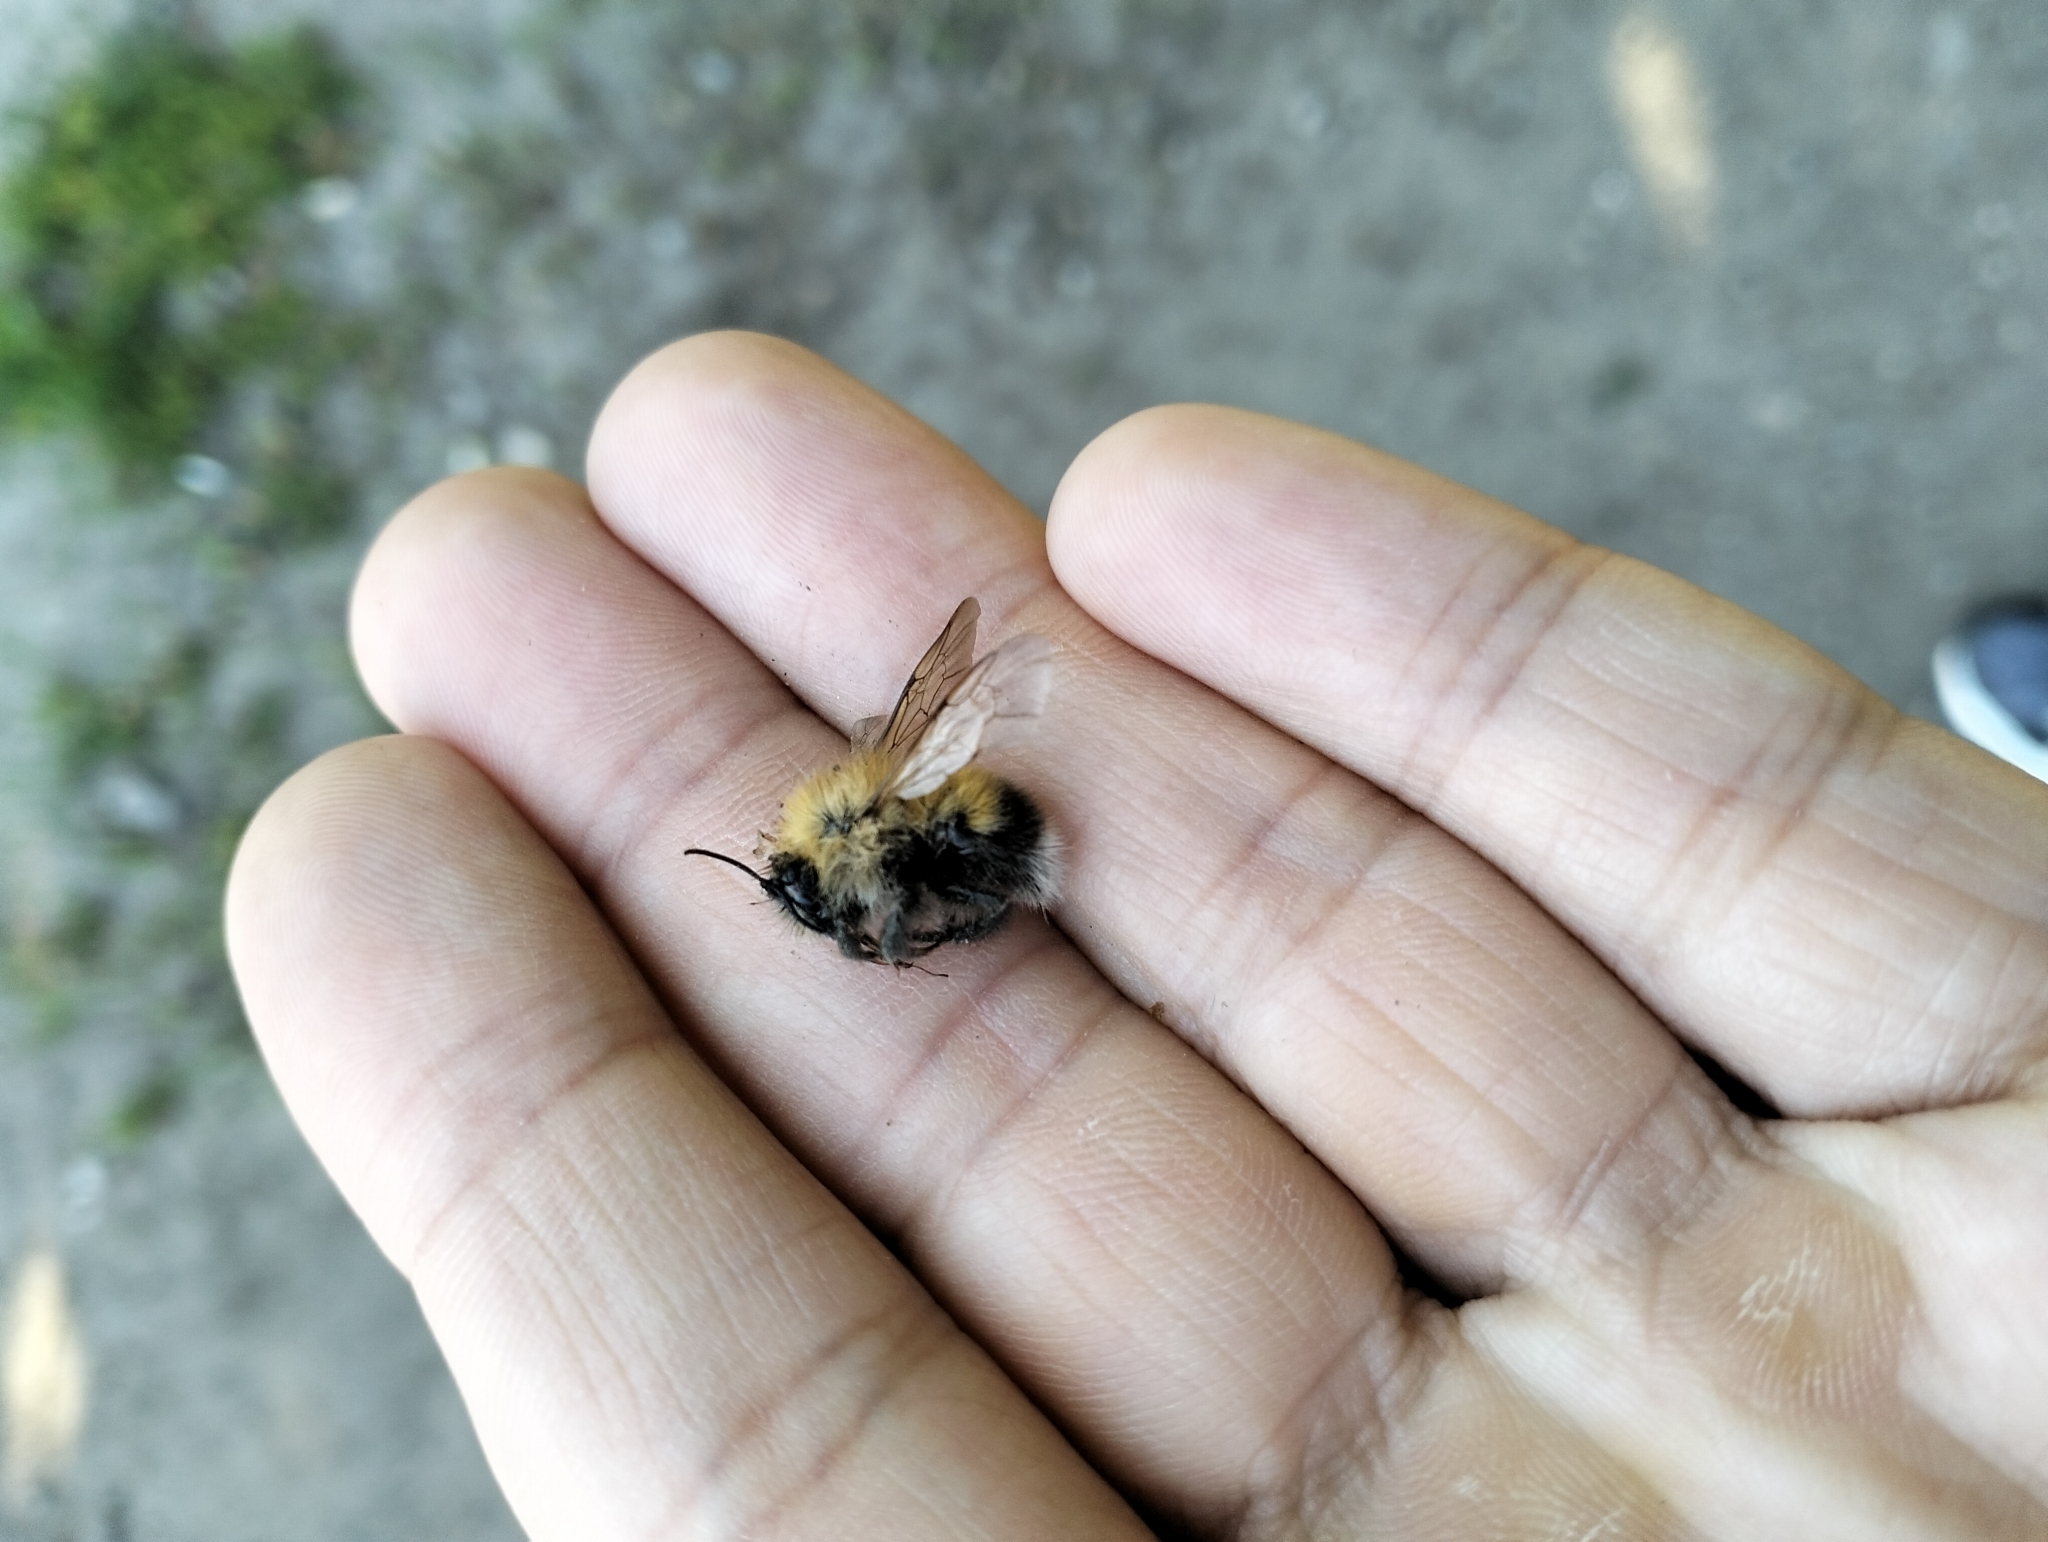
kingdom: Animalia
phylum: Arthropoda
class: Insecta
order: Hymenoptera
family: Apidae
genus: Bombus
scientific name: Bombus hypnorum
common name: New garden bumblebee
